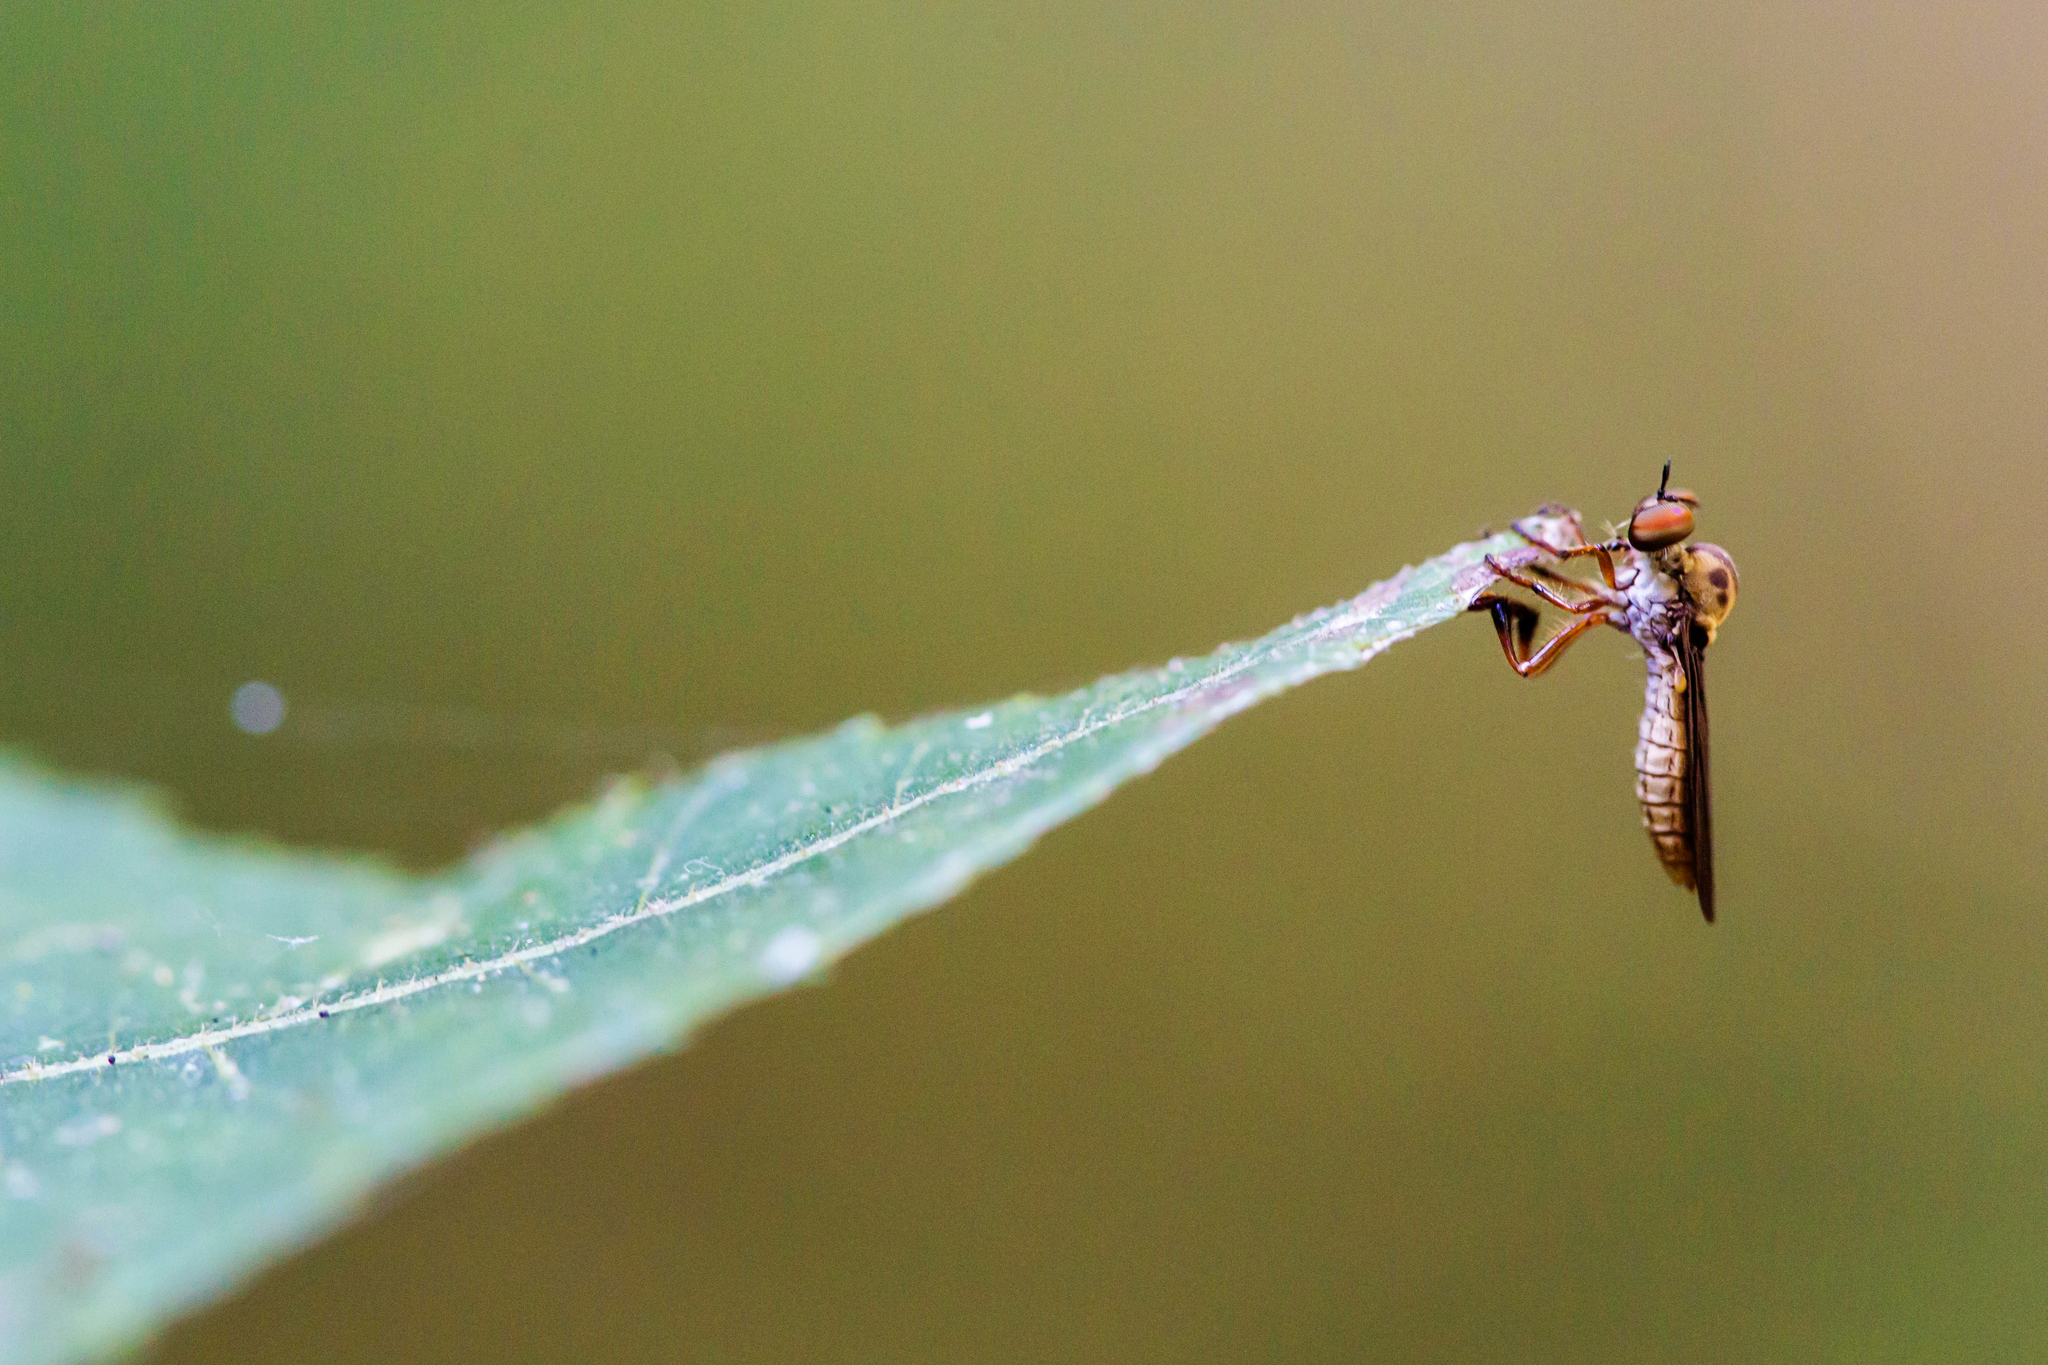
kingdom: Animalia
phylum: Arthropoda
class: Insecta
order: Diptera
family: Asilidae
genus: Holcocephala
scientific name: Holcocephala
